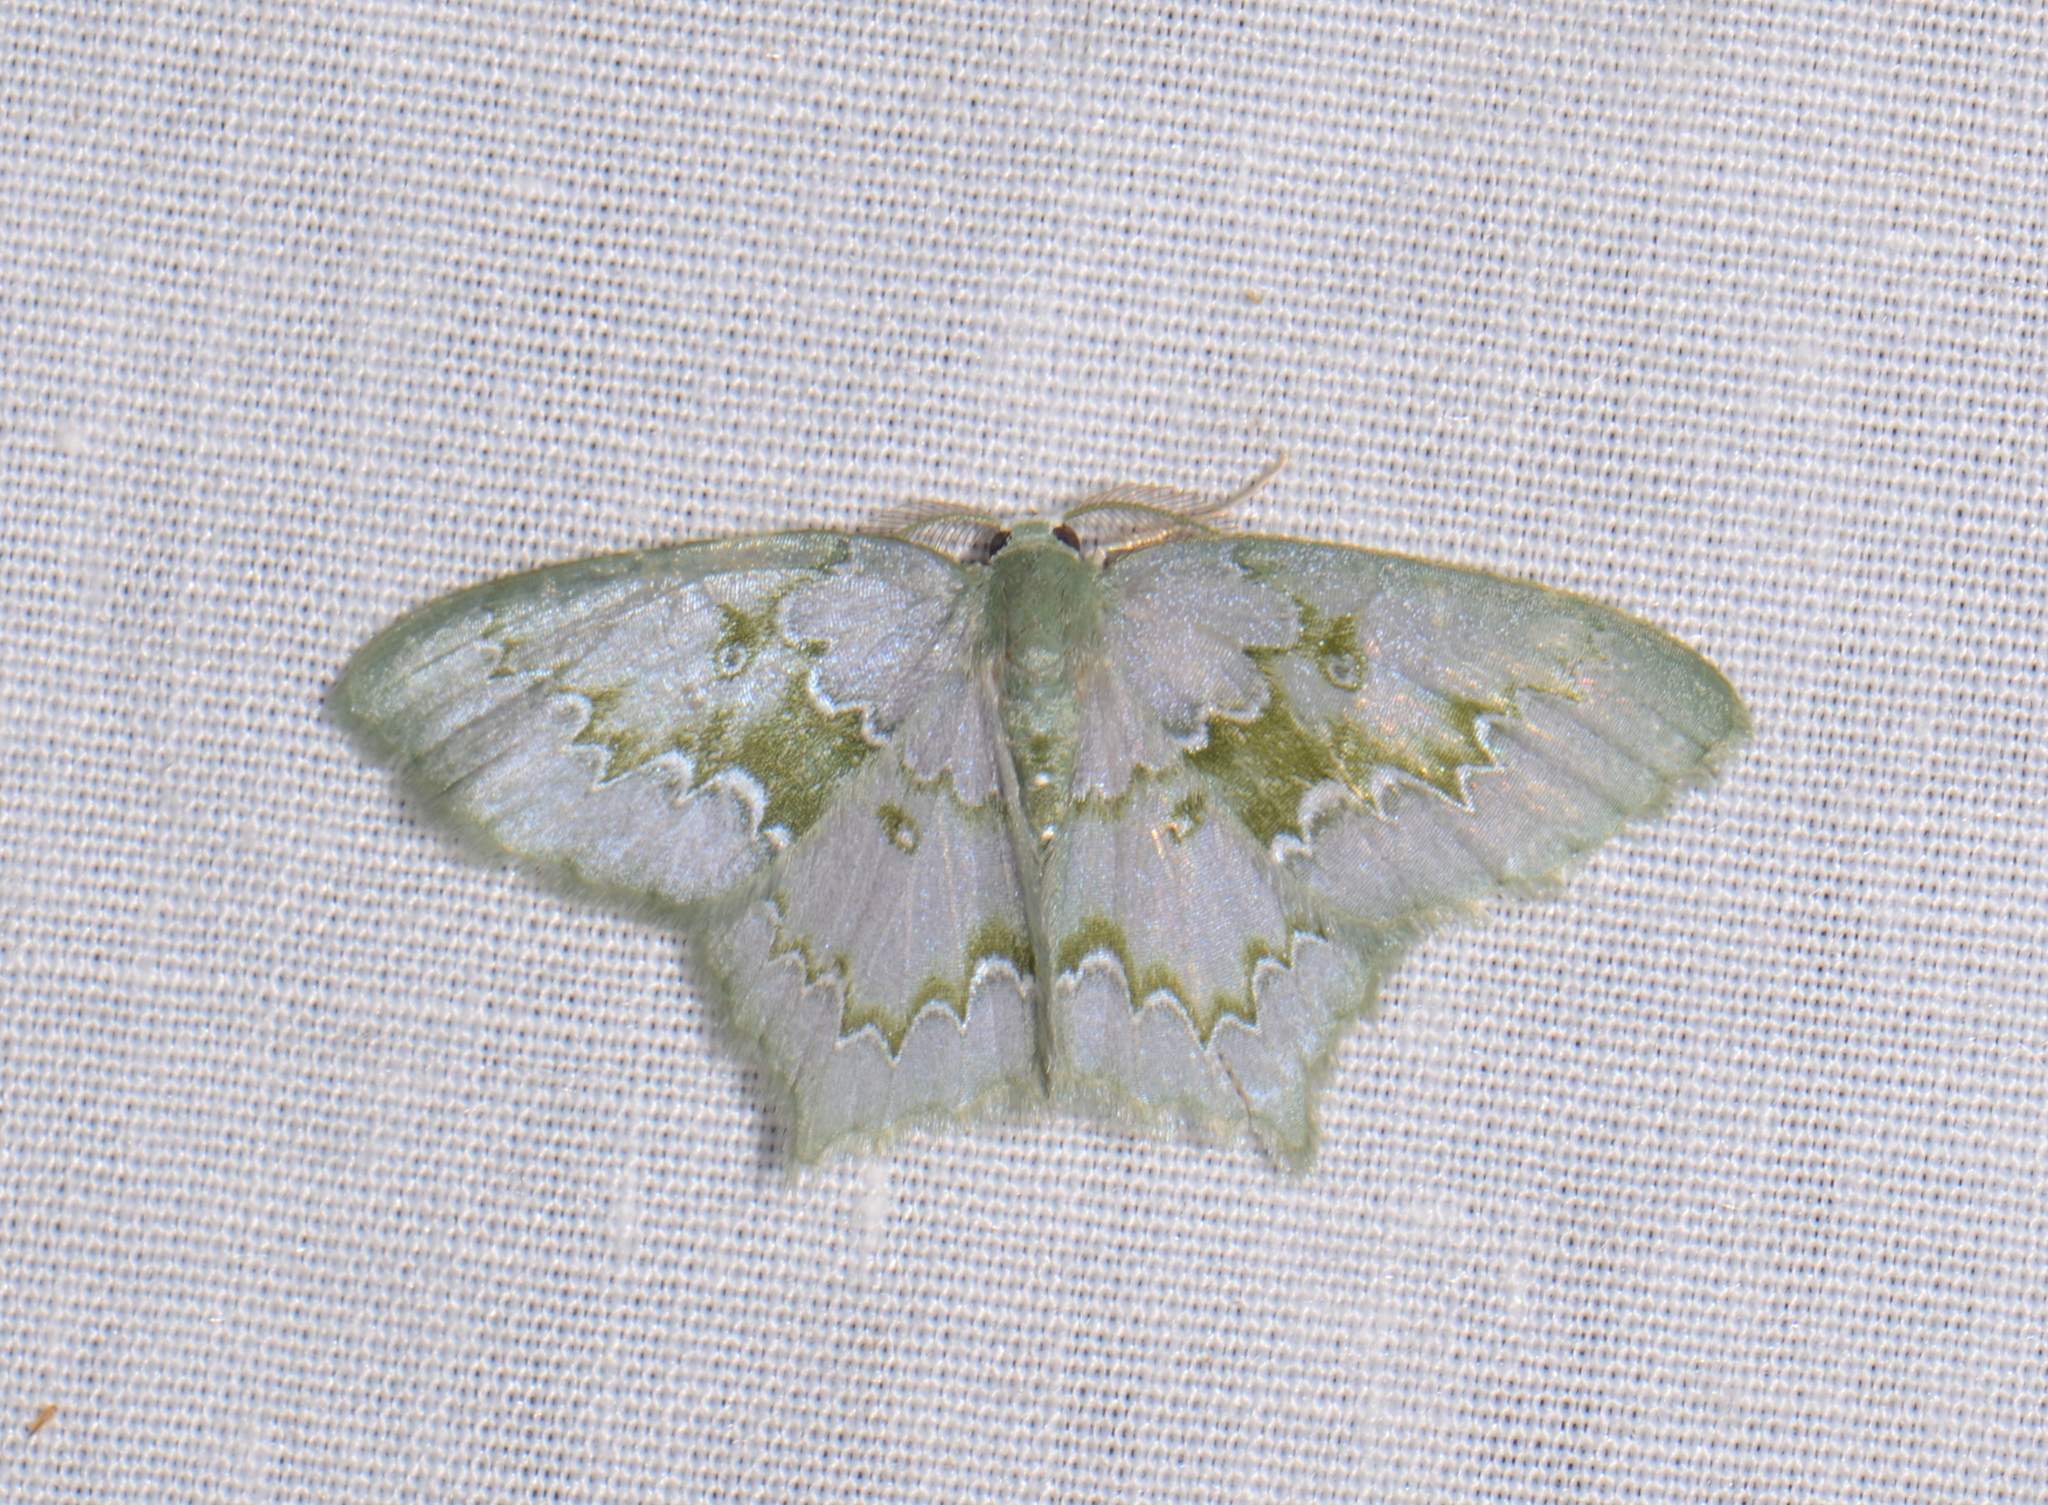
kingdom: Animalia
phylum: Arthropoda
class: Insecta
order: Lepidoptera
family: Geometridae
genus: Jodis
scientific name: Jodis colpostrophia
